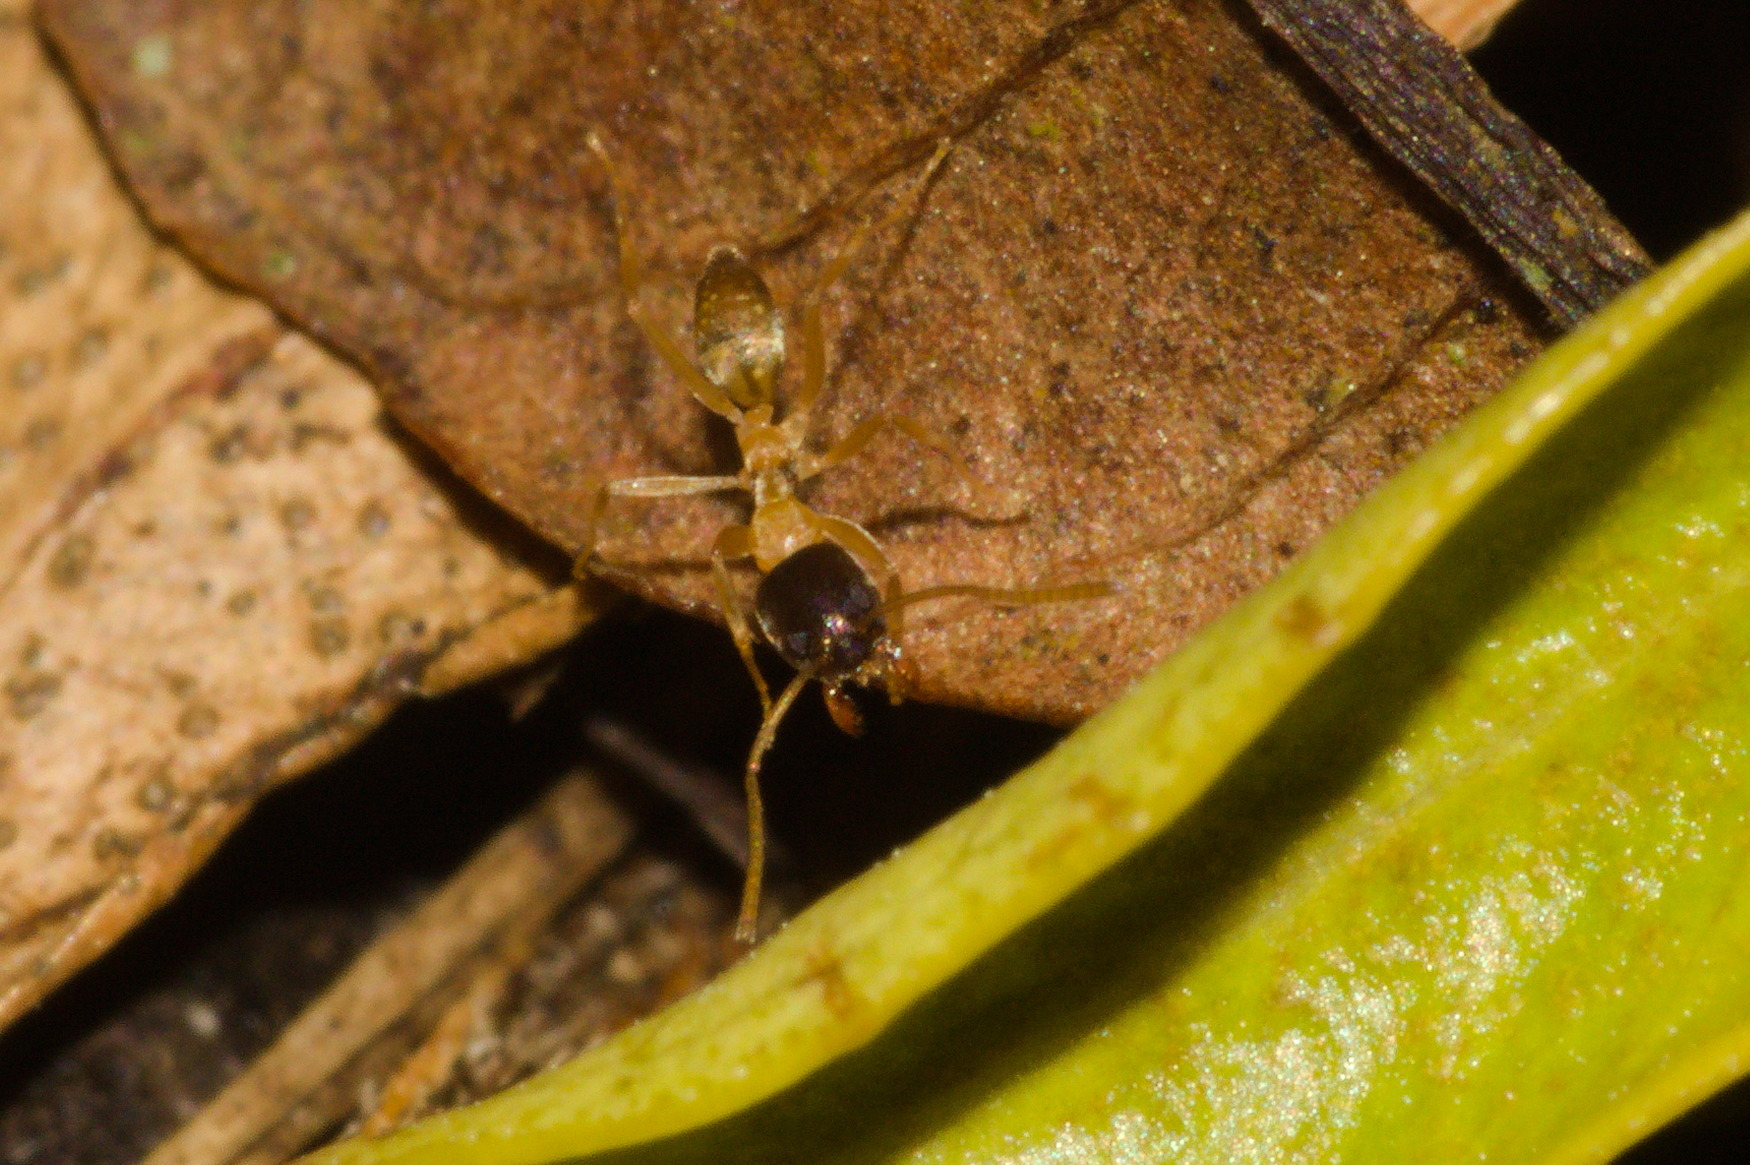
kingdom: Animalia
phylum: Arthropoda
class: Insecta
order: Hymenoptera
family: Formicidae
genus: Linepithema
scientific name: Linepithema leucomelas
